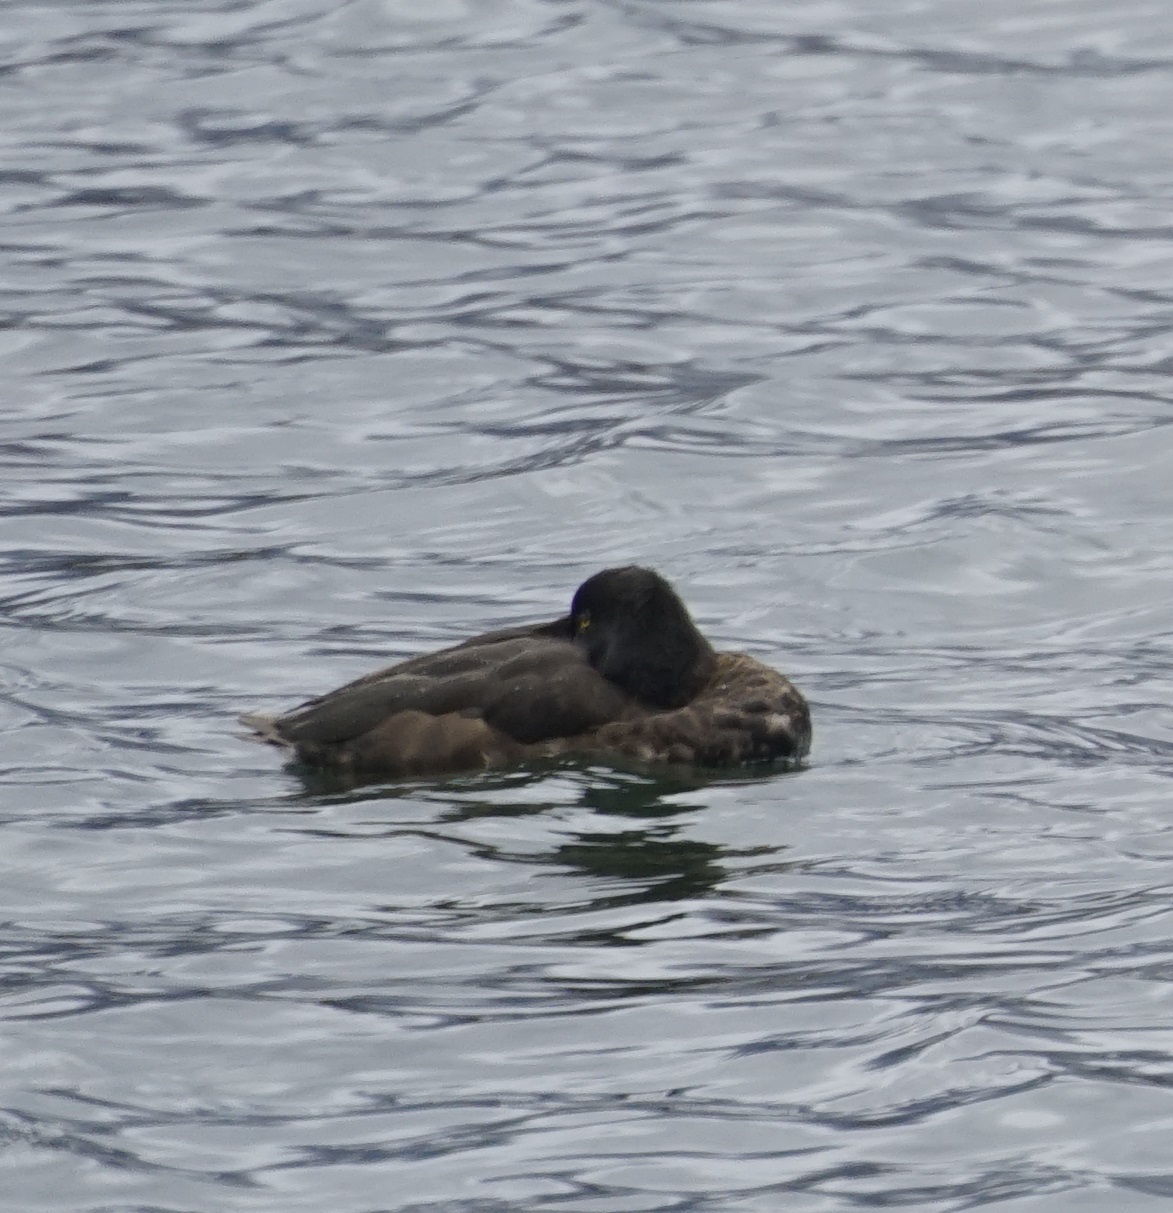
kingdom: Animalia
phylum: Chordata
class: Aves
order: Anseriformes
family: Anatidae
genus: Aythya
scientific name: Aythya fuligula
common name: Tufted duck
